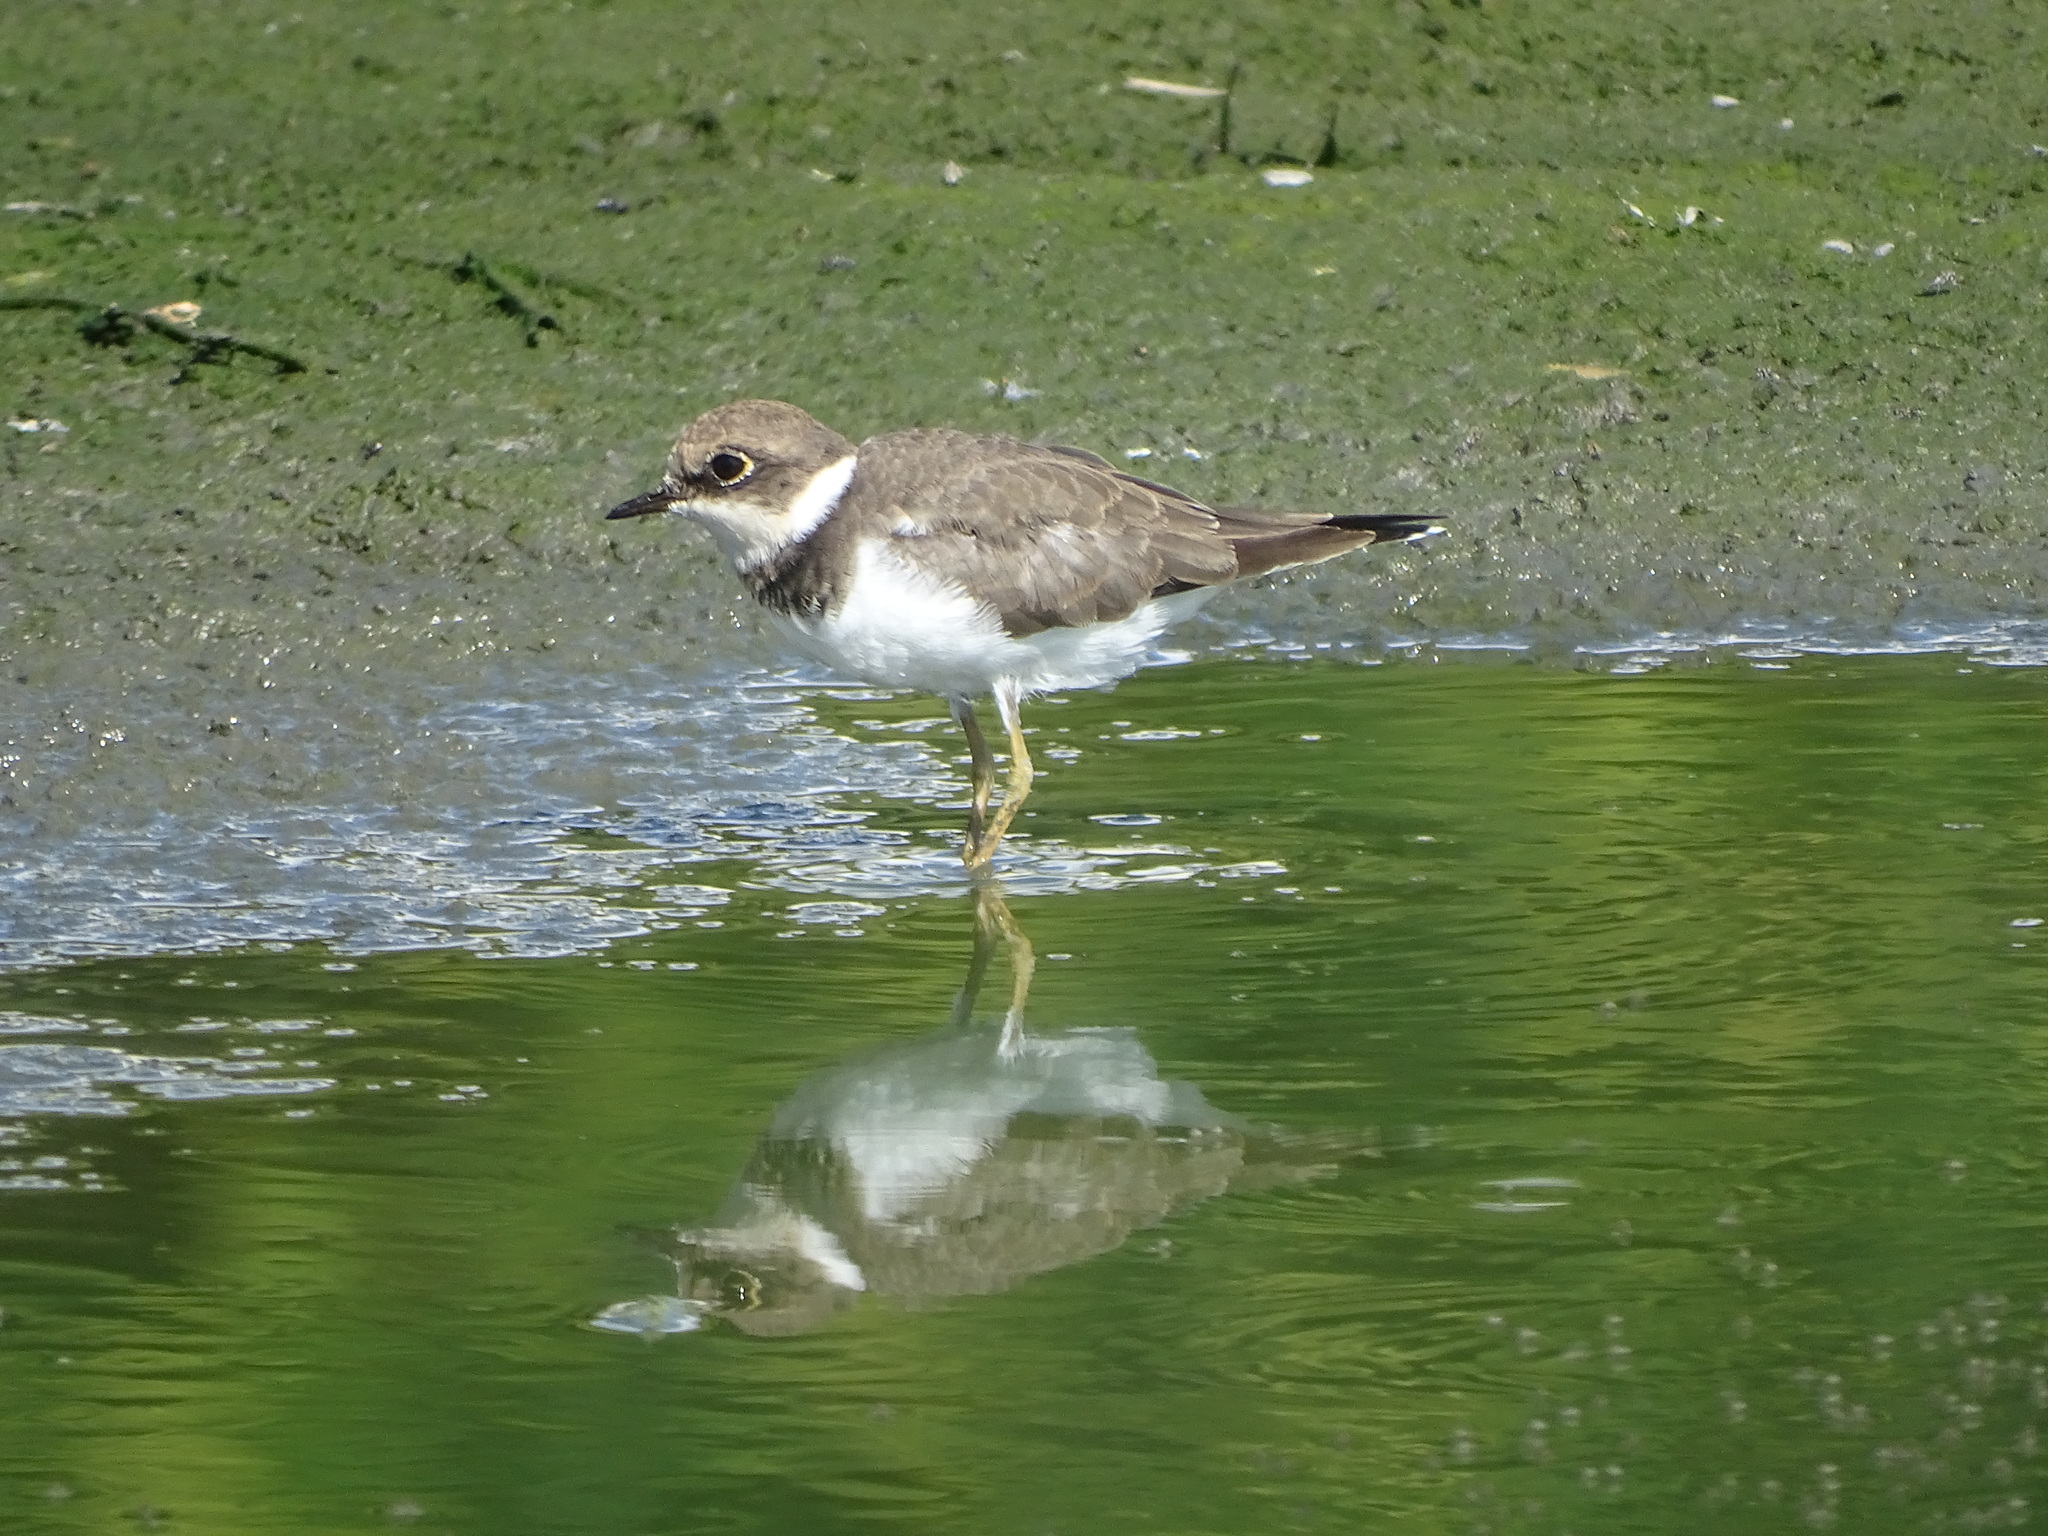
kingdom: Animalia
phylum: Chordata
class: Aves
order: Charadriiformes
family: Charadriidae
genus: Charadrius
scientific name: Charadrius dubius
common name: Little ringed plover
